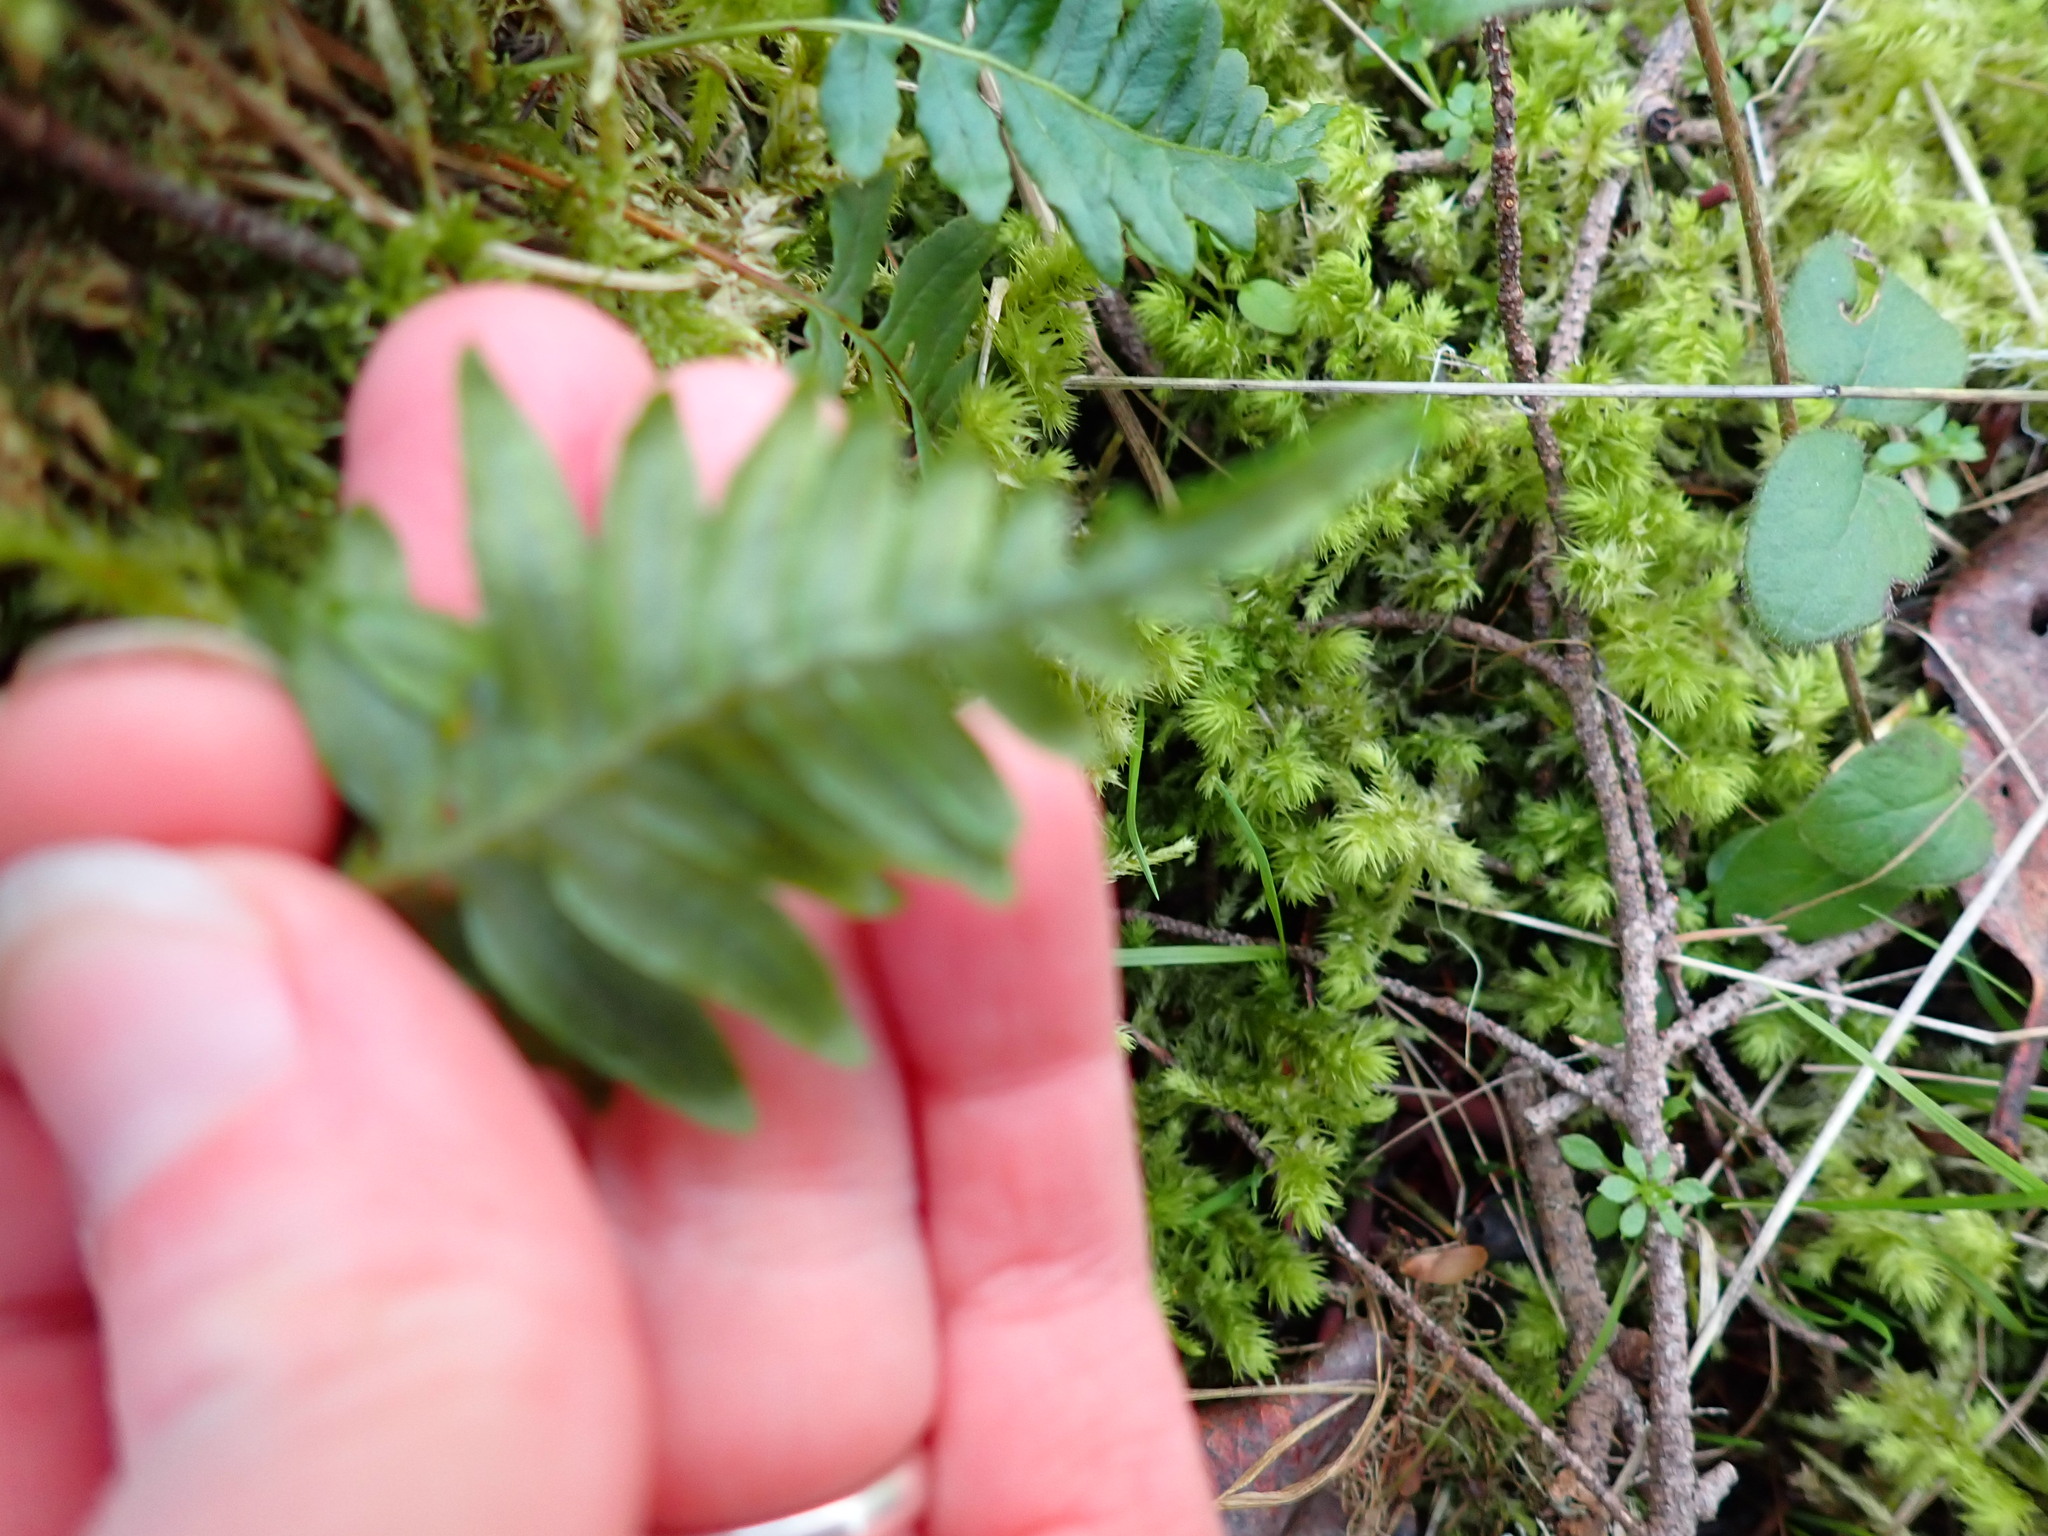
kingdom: Plantae
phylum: Tracheophyta
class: Polypodiopsida
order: Polypodiales
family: Polypodiaceae
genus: Polypodium
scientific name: Polypodium glycyrrhiza
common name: Licorice fern
